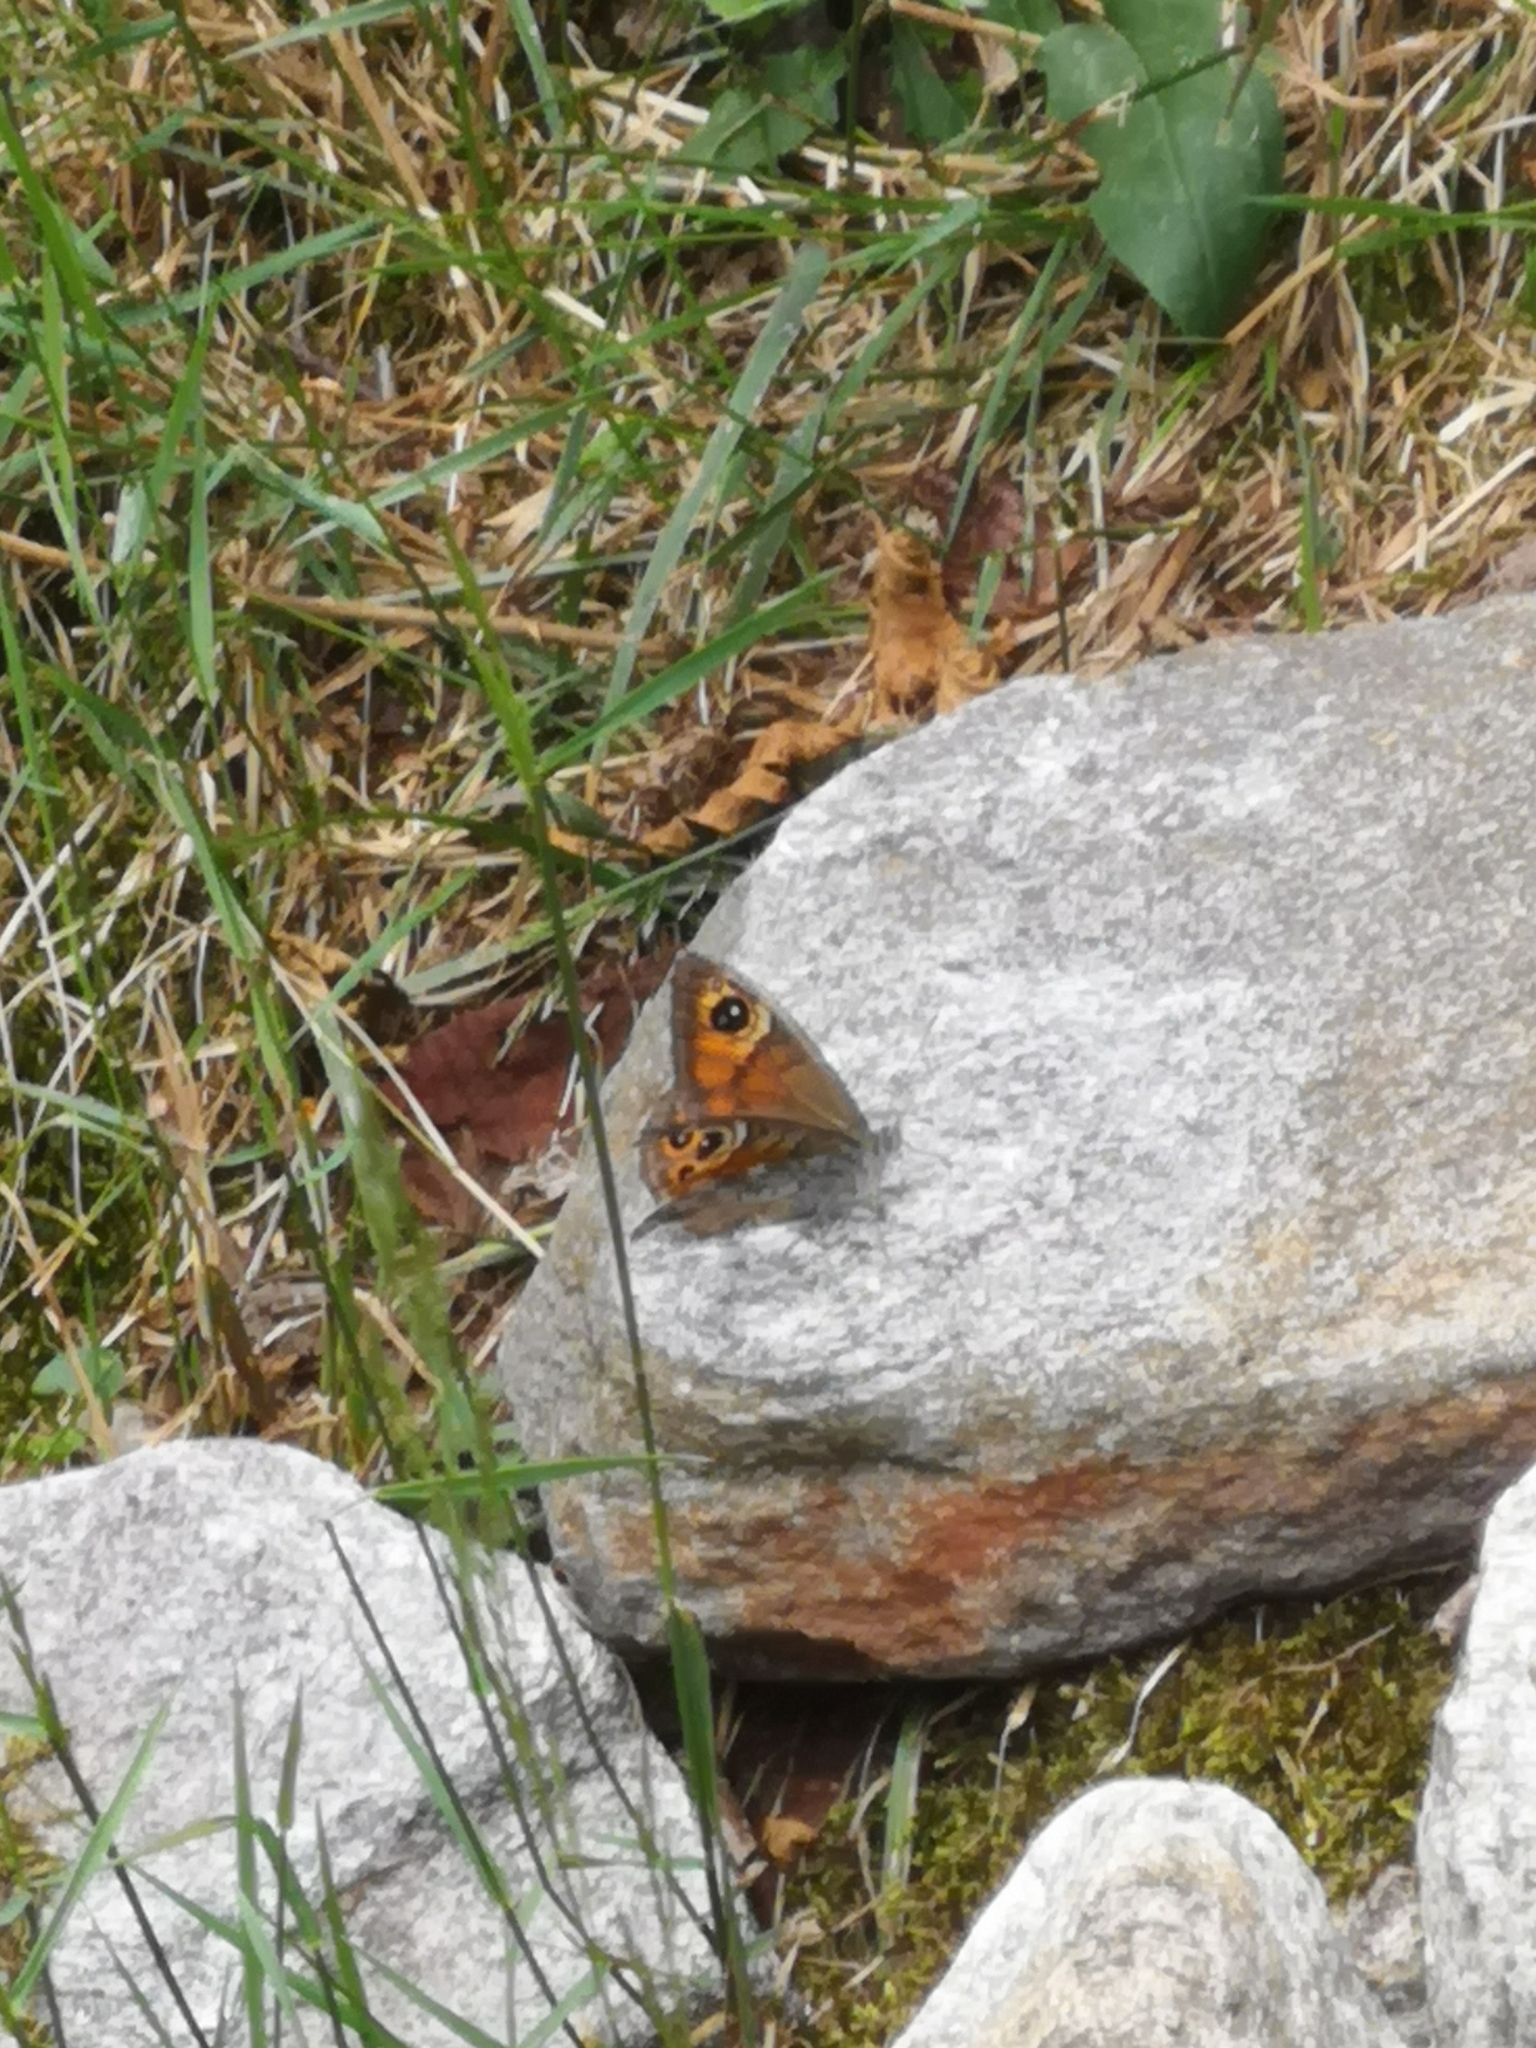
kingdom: Animalia
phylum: Arthropoda
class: Insecta
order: Lepidoptera
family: Nymphalidae
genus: Pararge
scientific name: Pararge Lasiommata maera
